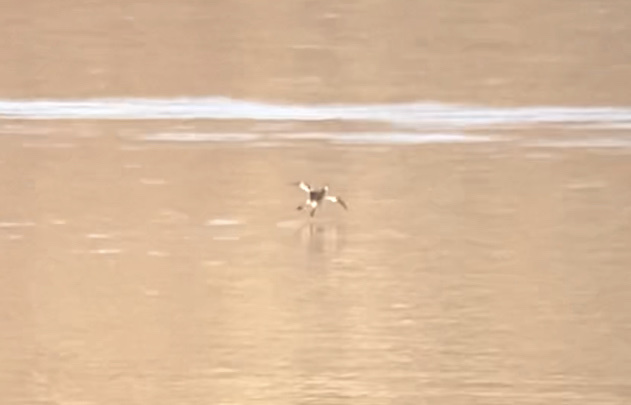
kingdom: Animalia
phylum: Chordata
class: Aves
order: Podicipediformes
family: Podicipedidae
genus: Podiceps
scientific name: Podiceps auritus
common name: Horned grebe
